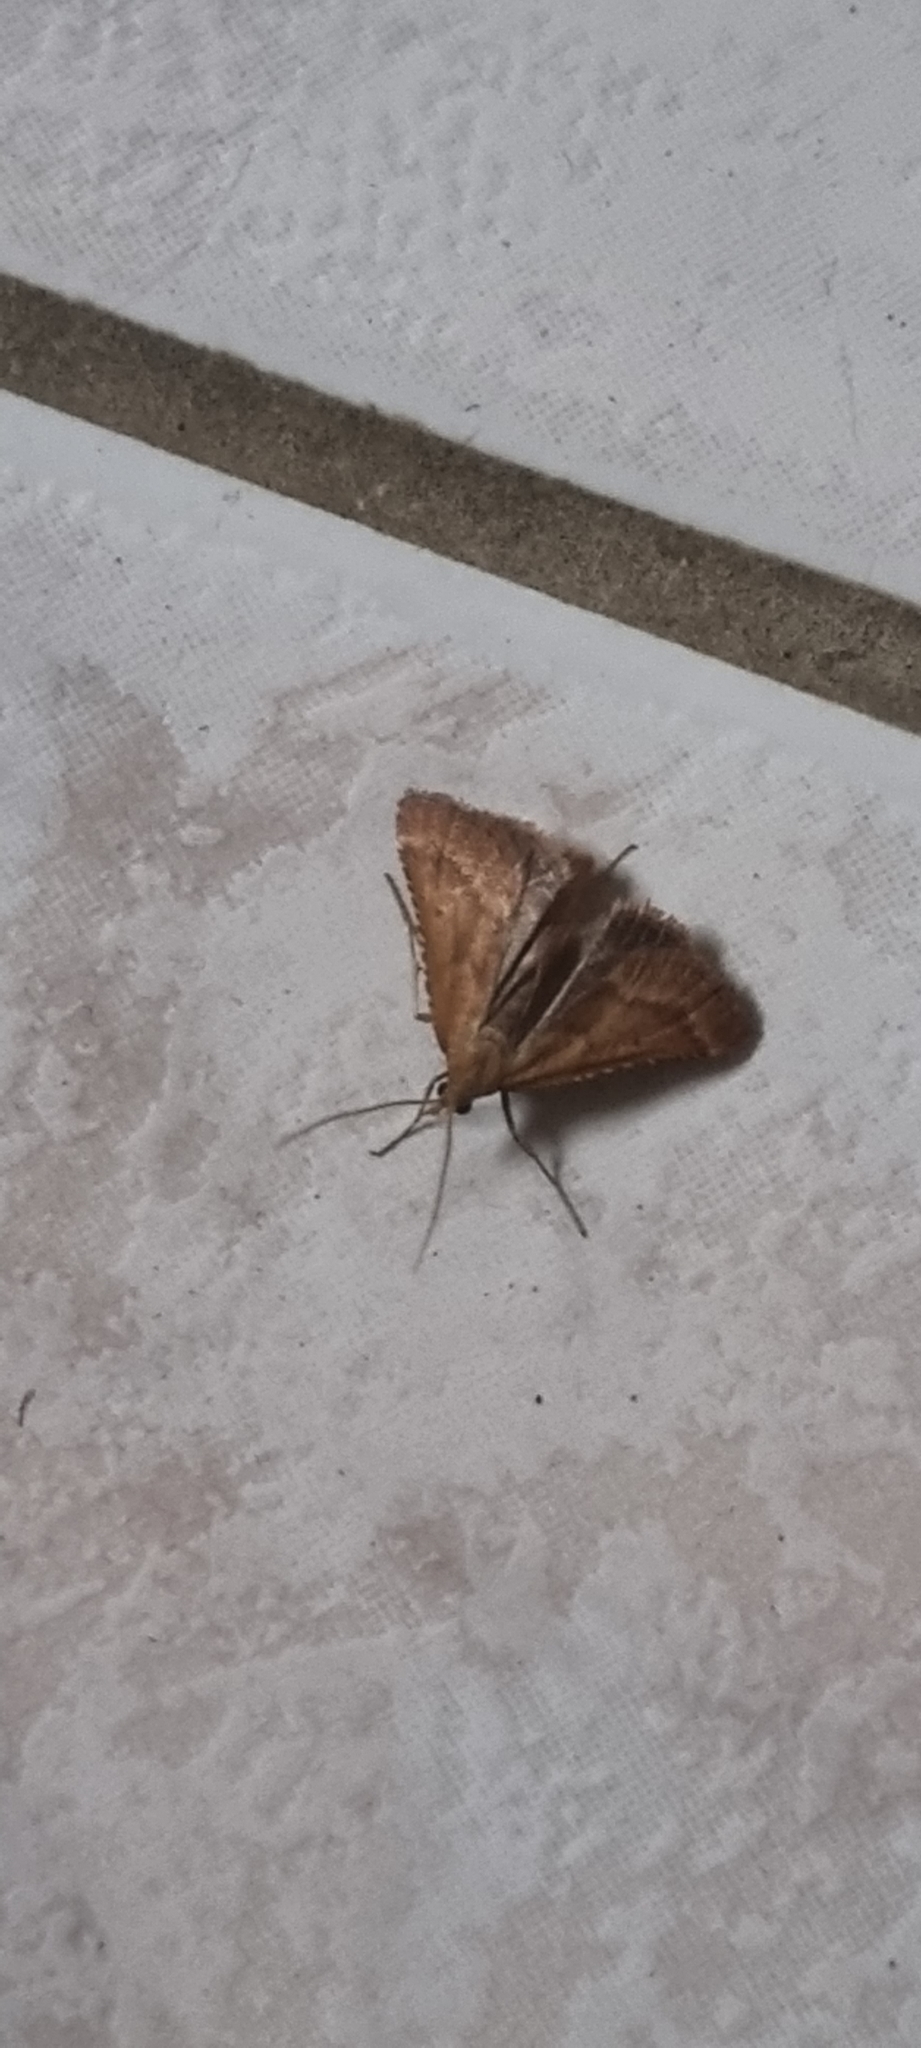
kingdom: Animalia
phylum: Arthropoda
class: Insecta
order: Lepidoptera
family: Pyralidae
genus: Synaphe
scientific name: Synaphe punctalis
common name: Long-legged tabby
